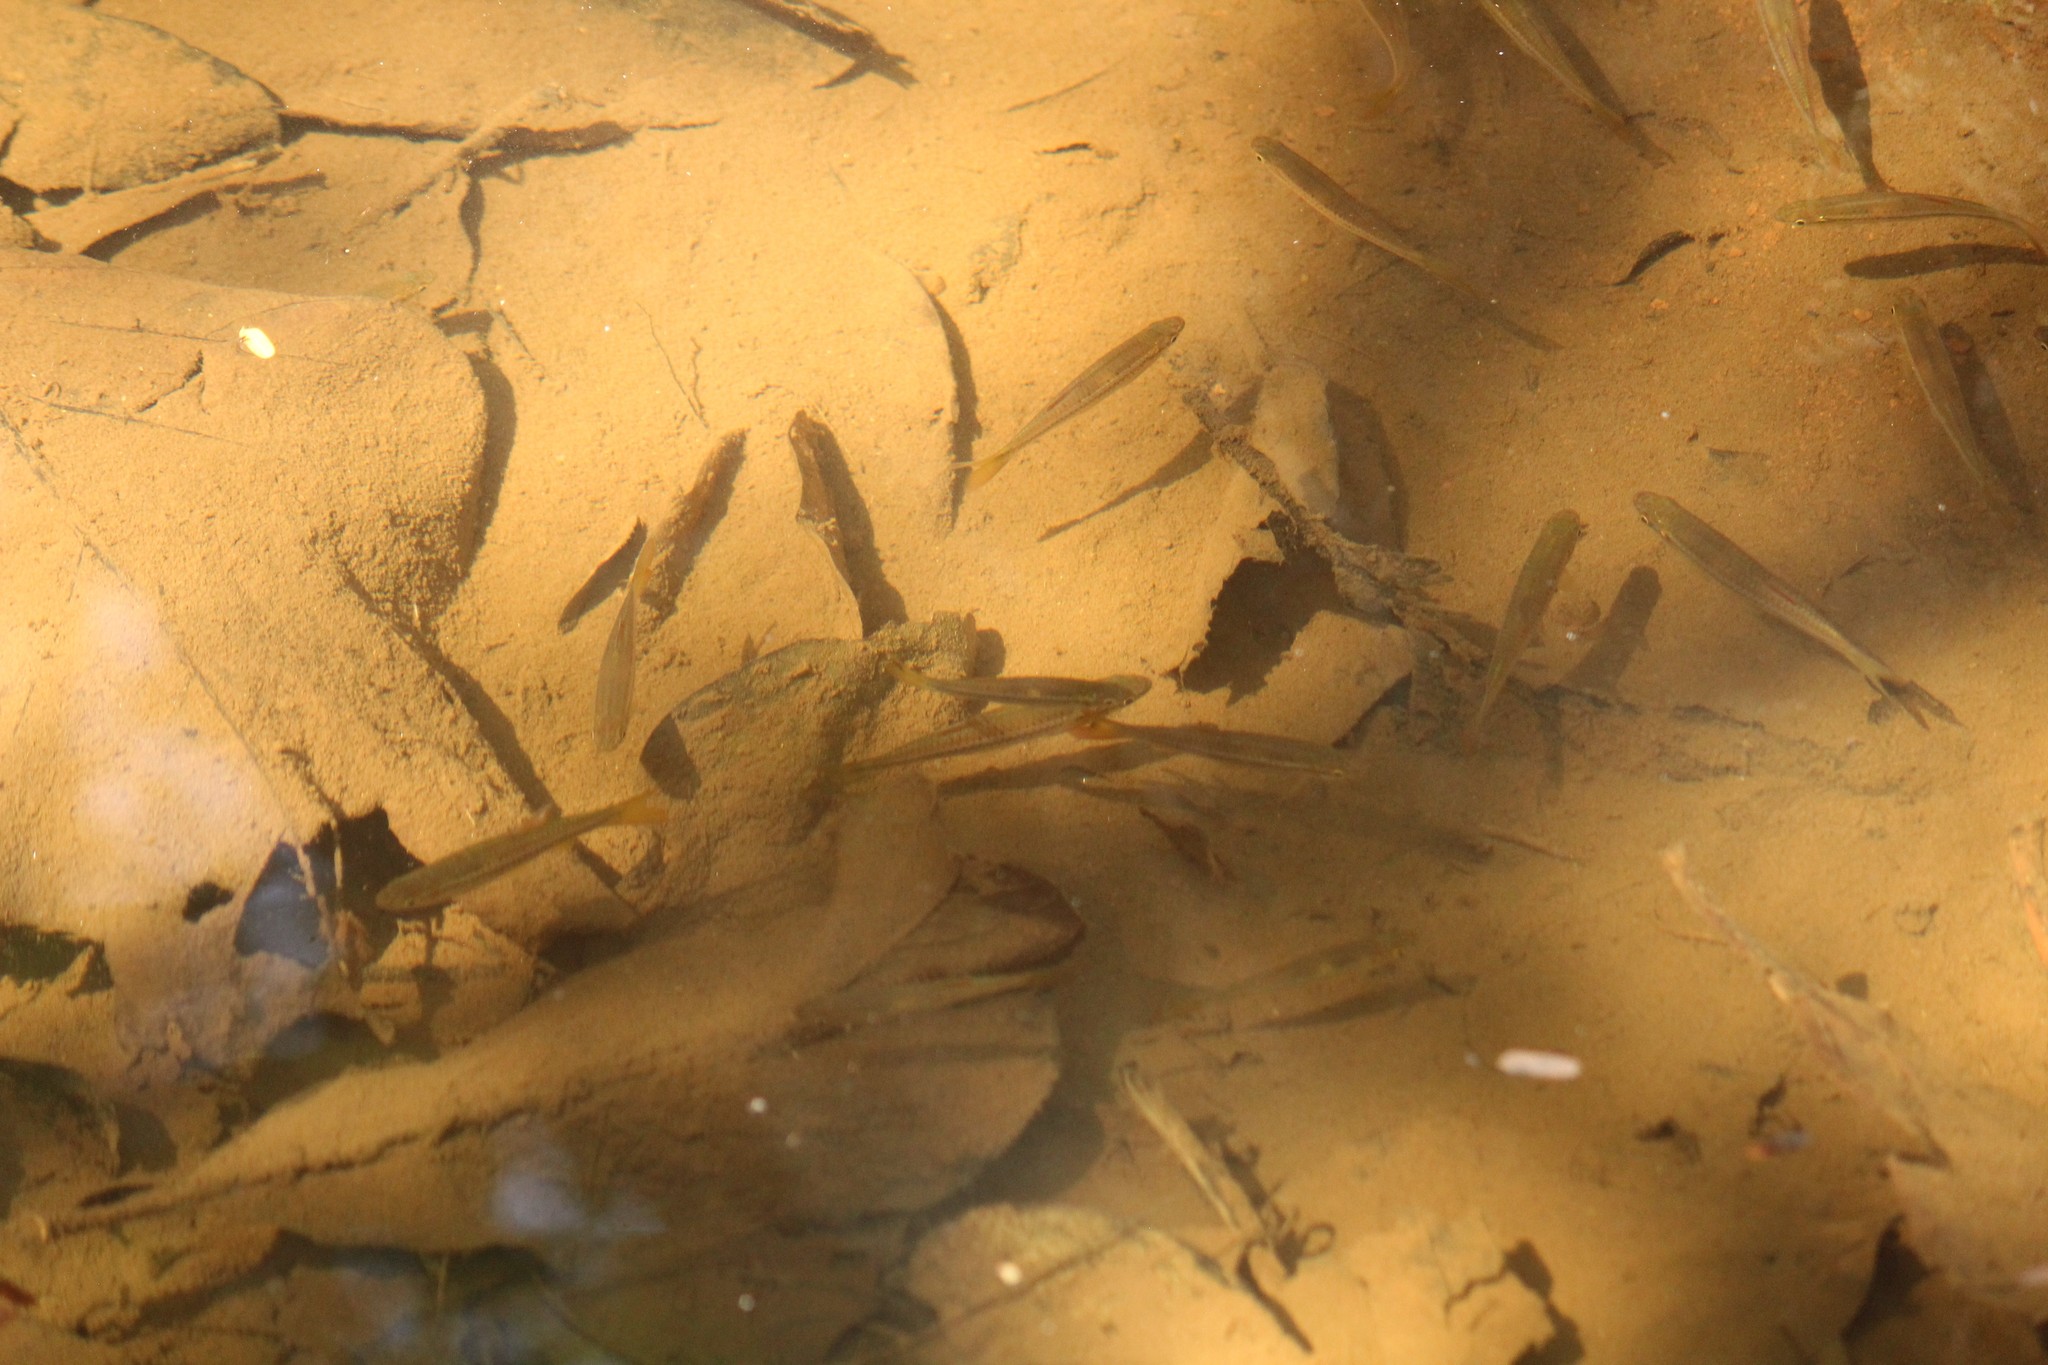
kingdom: Animalia
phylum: Chordata
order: Cypriniformes
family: Cyprinidae
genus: Rasbora
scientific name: Rasbora dandia
